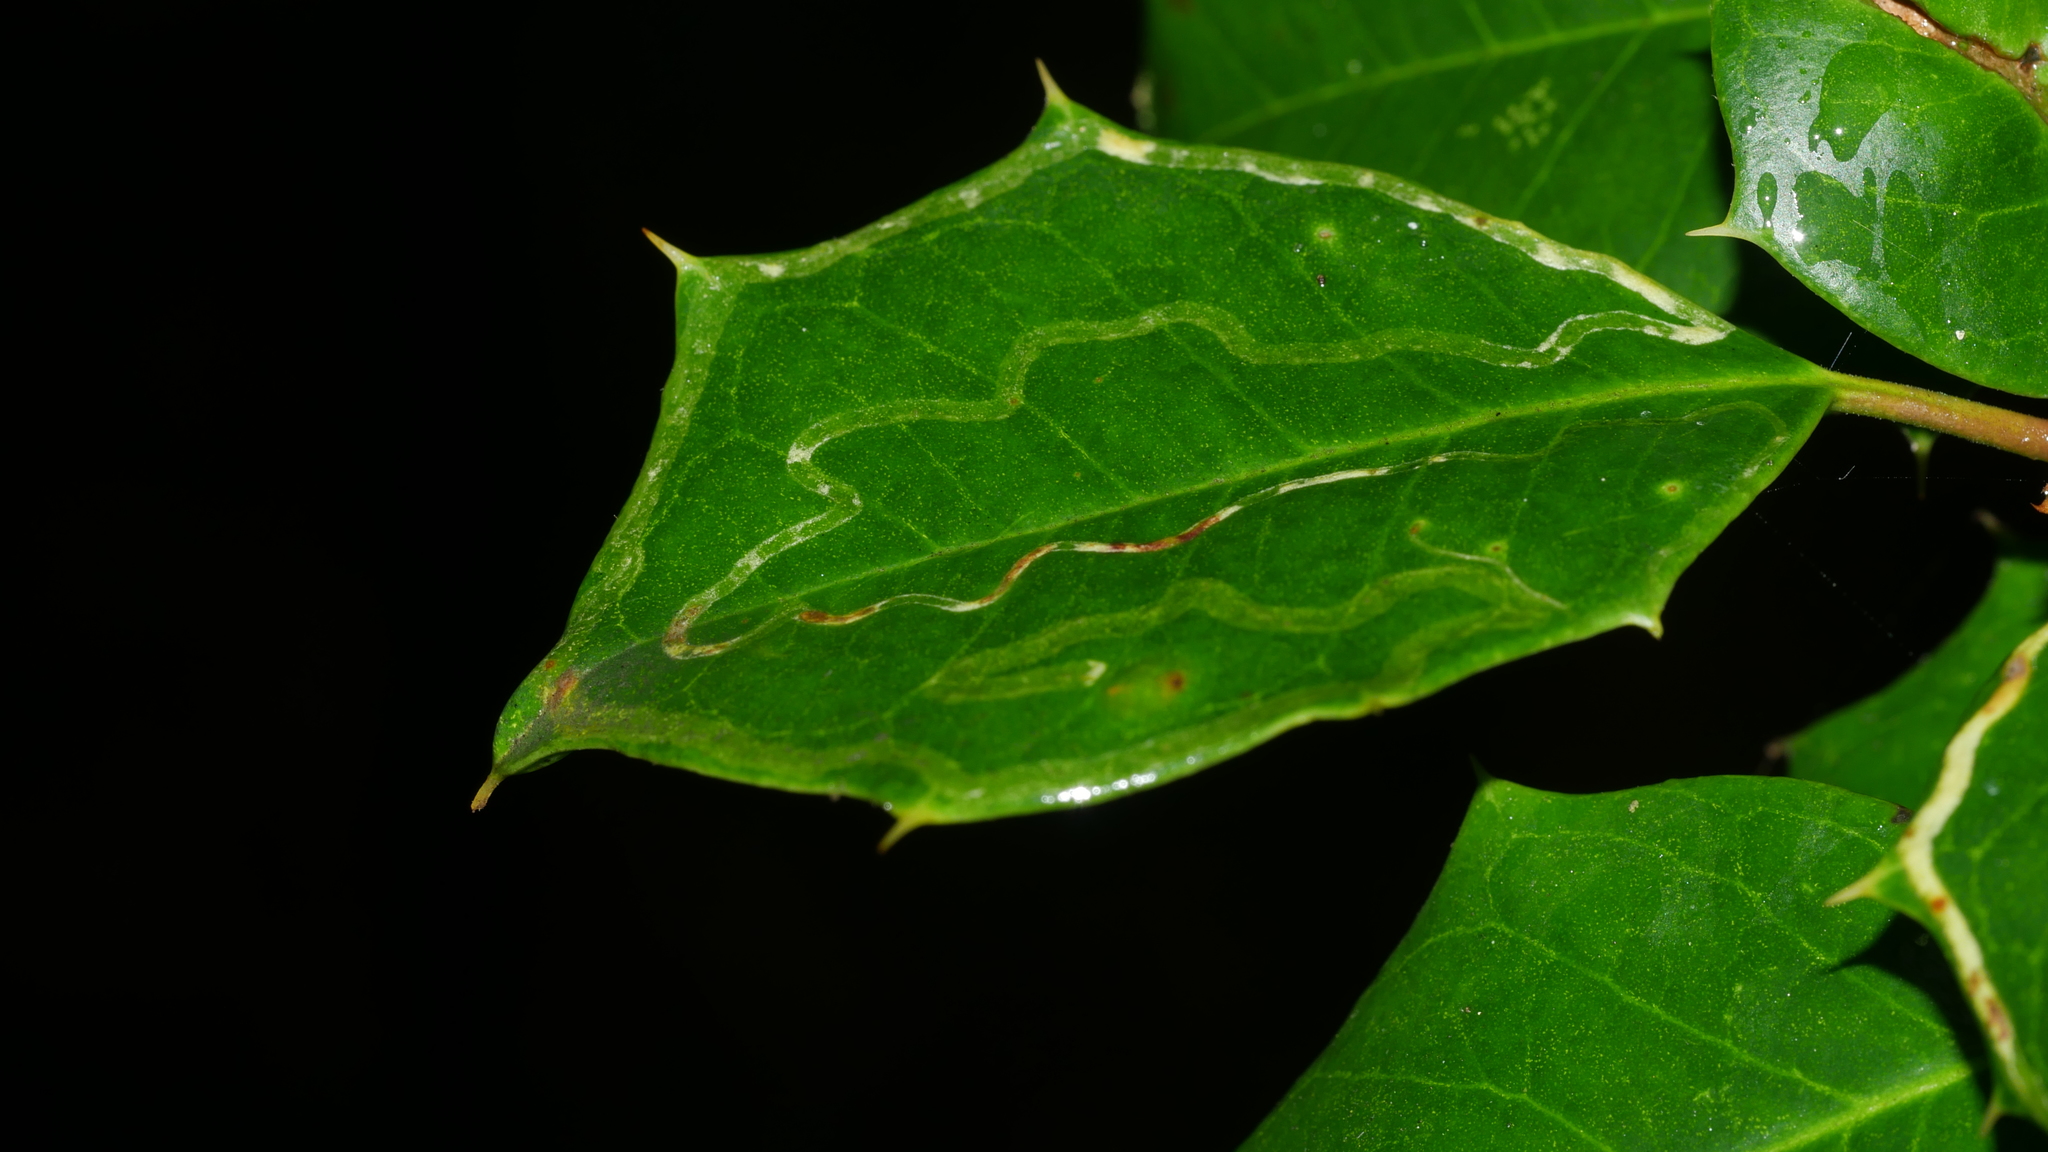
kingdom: Animalia
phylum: Arthropoda
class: Insecta
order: Diptera
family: Agromyzidae
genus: Phytomyza
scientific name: Phytomyza opacae
